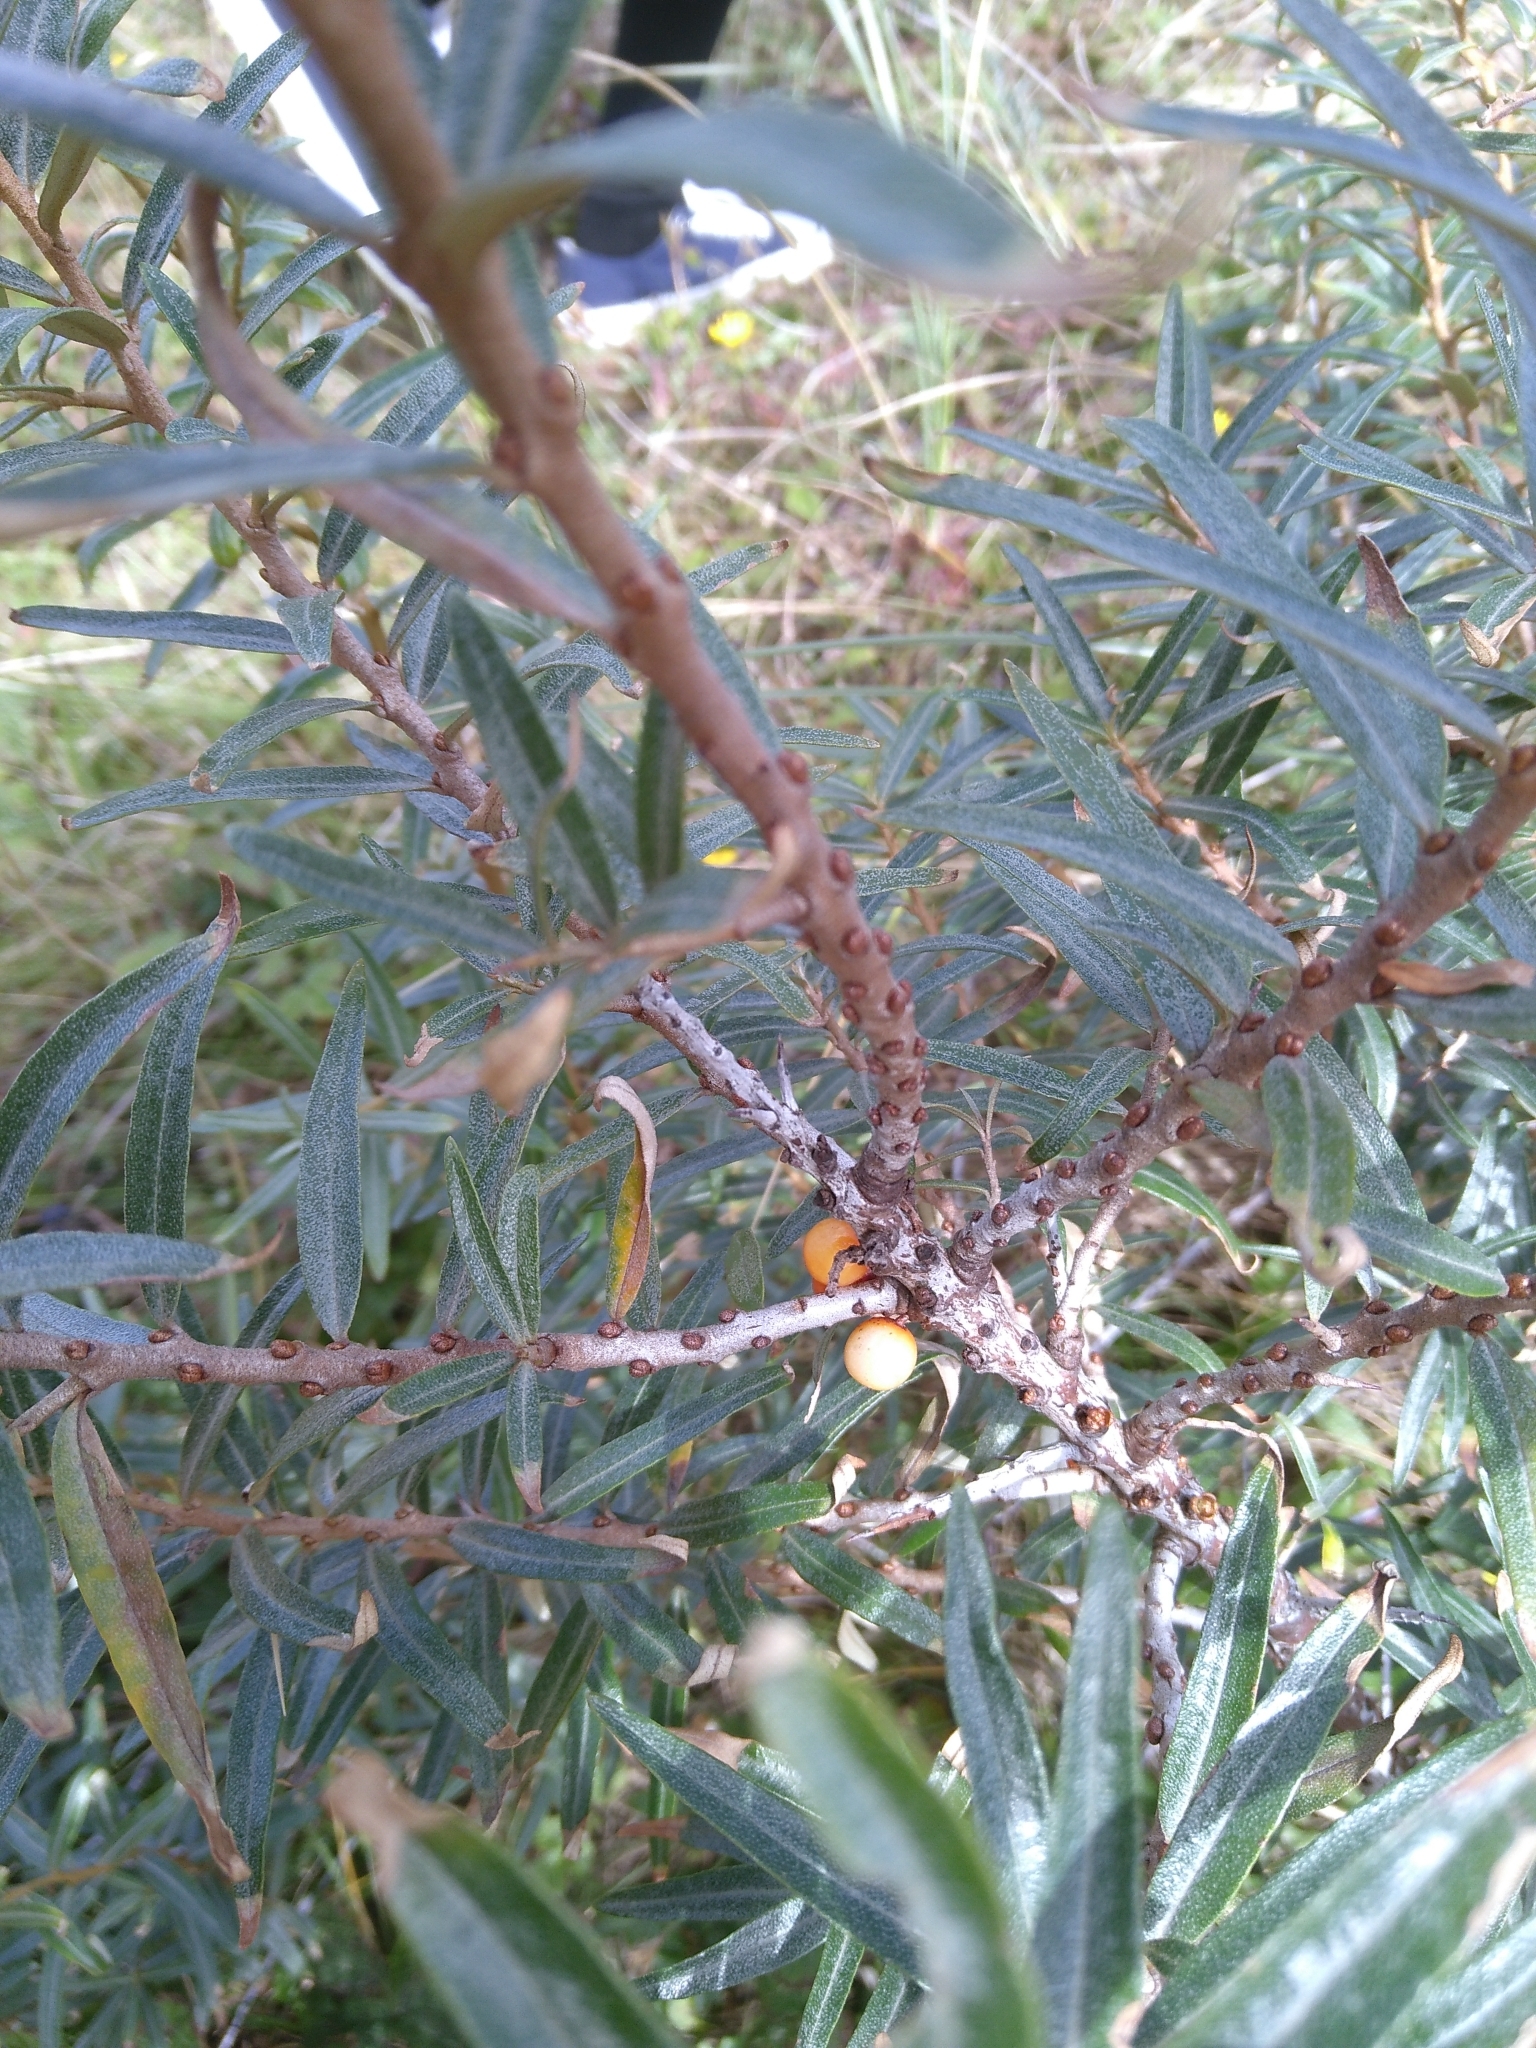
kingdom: Plantae
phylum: Tracheophyta
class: Magnoliopsida
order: Rosales
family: Elaeagnaceae
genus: Hippophae
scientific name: Hippophae rhamnoides
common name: Sea-buckthorn
